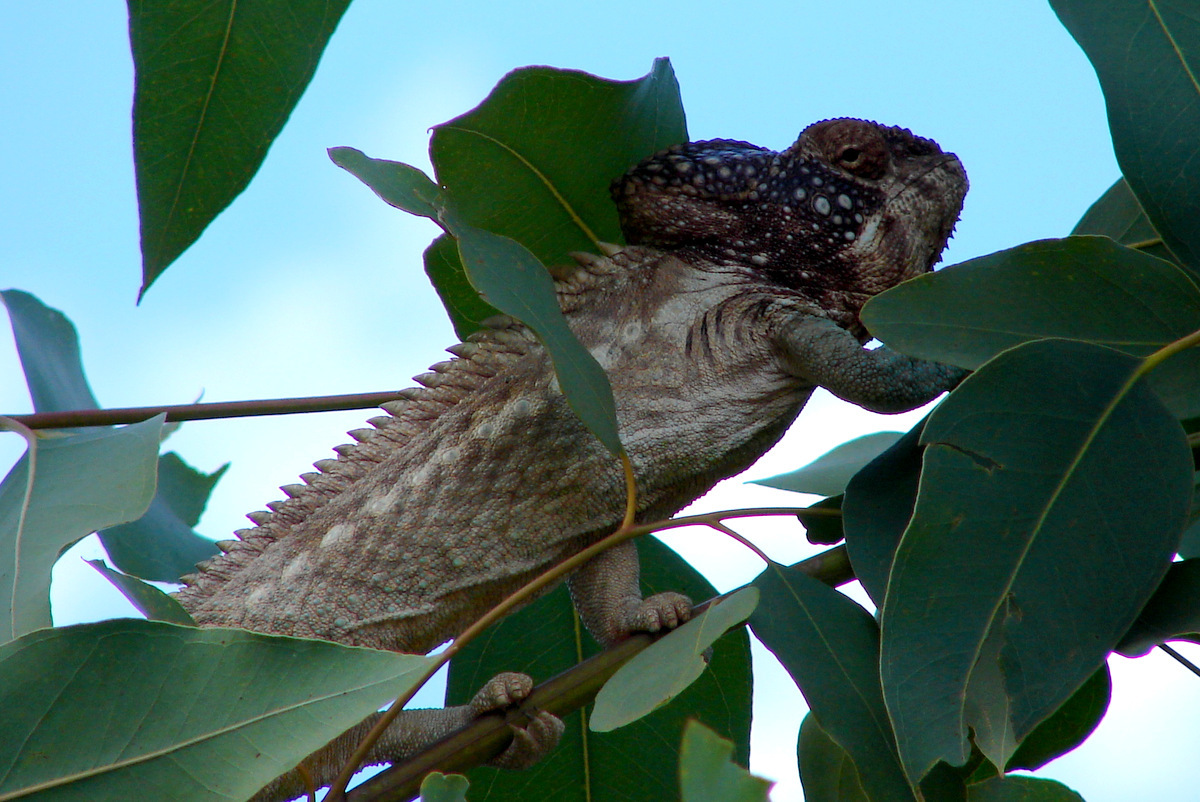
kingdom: Animalia
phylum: Chordata
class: Squamata
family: Chamaeleonidae
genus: Furcifer
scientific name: Furcifer verrucosus
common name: Warty chameleon
